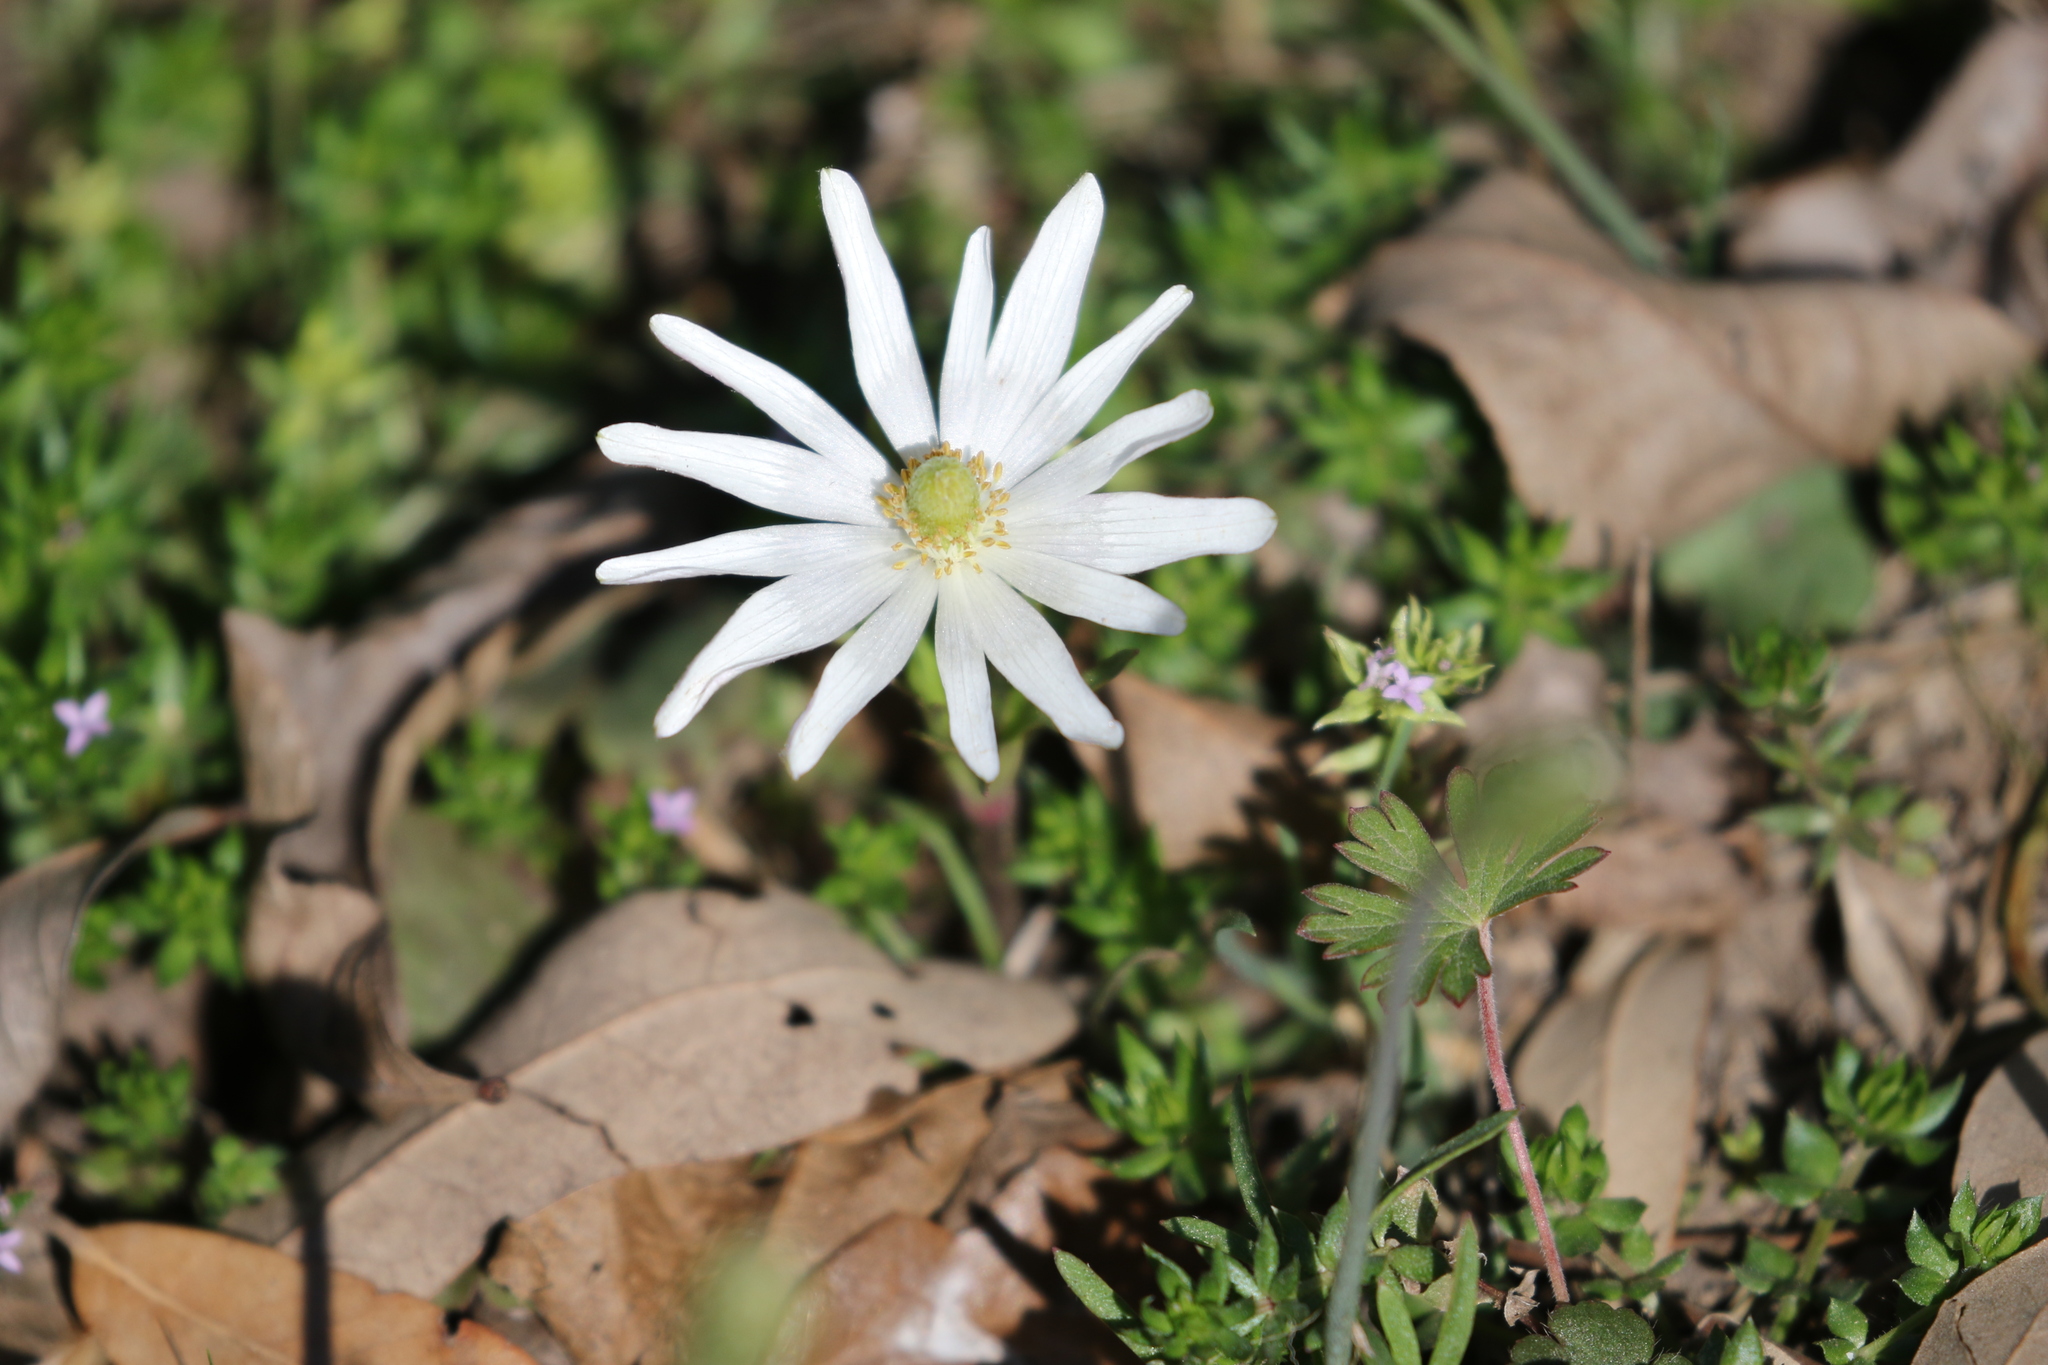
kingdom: Plantae
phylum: Tracheophyta
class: Magnoliopsida
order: Ranunculales
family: Ranunculaceae
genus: Anemone
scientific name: Anemone berlandieri
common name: Ten-petal anemone
